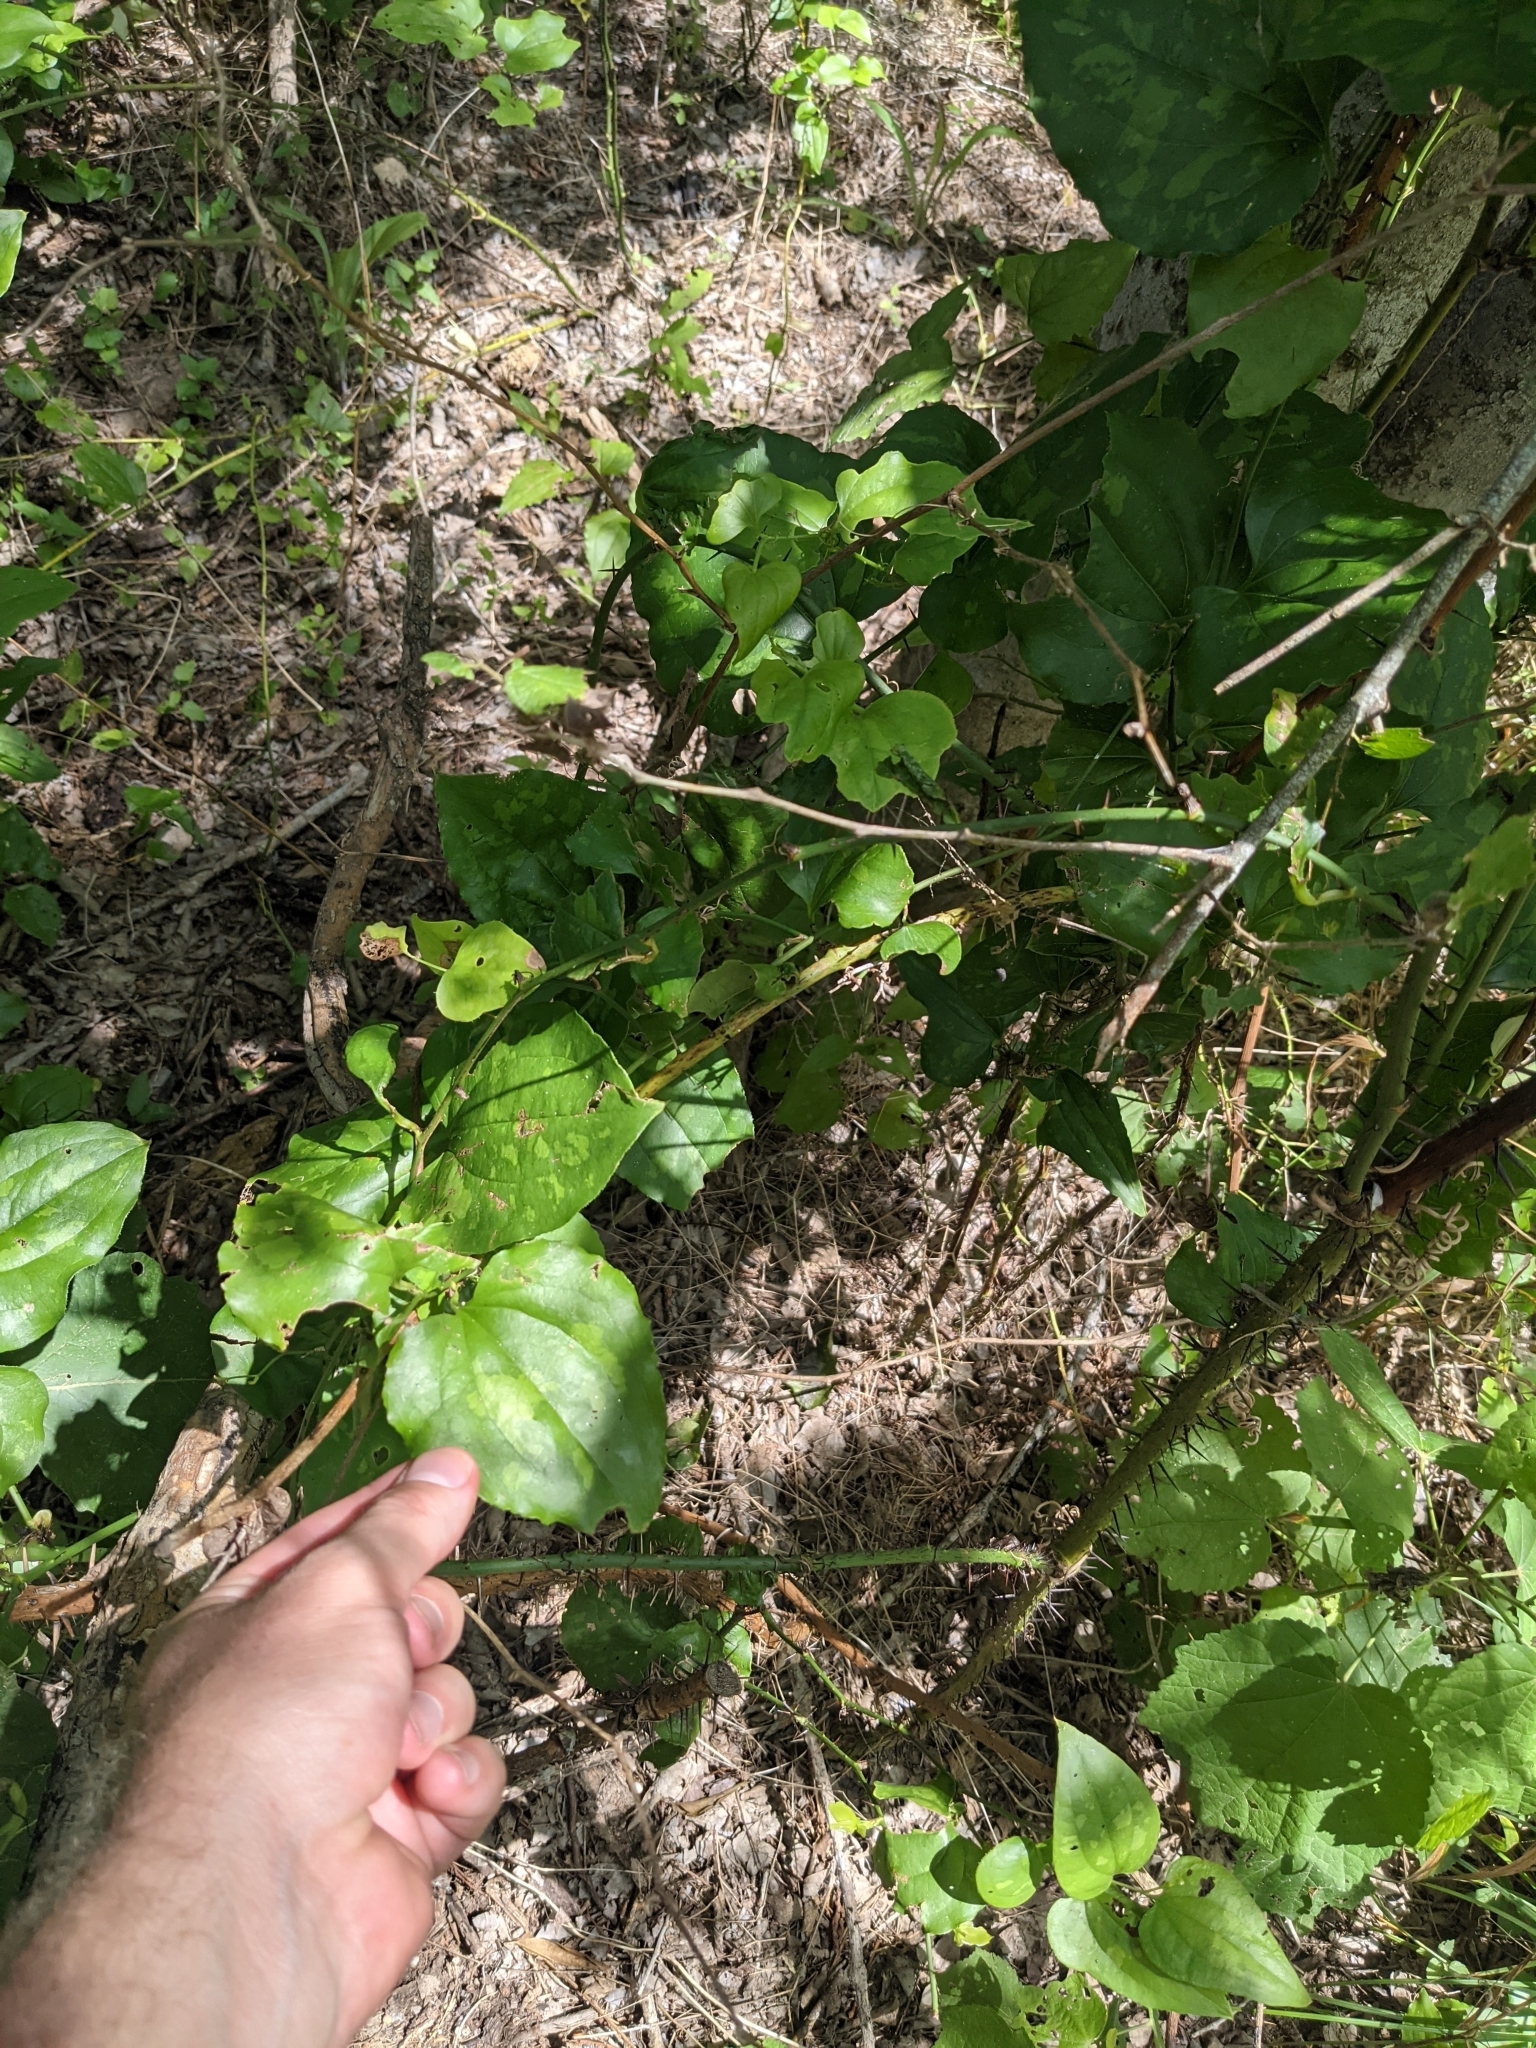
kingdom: Plantae
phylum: Tracheophyta
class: Liliopsida
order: Liliales
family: Smilacaceae
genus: Smilax
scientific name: Smilax tamnoides
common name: Hellfetter
